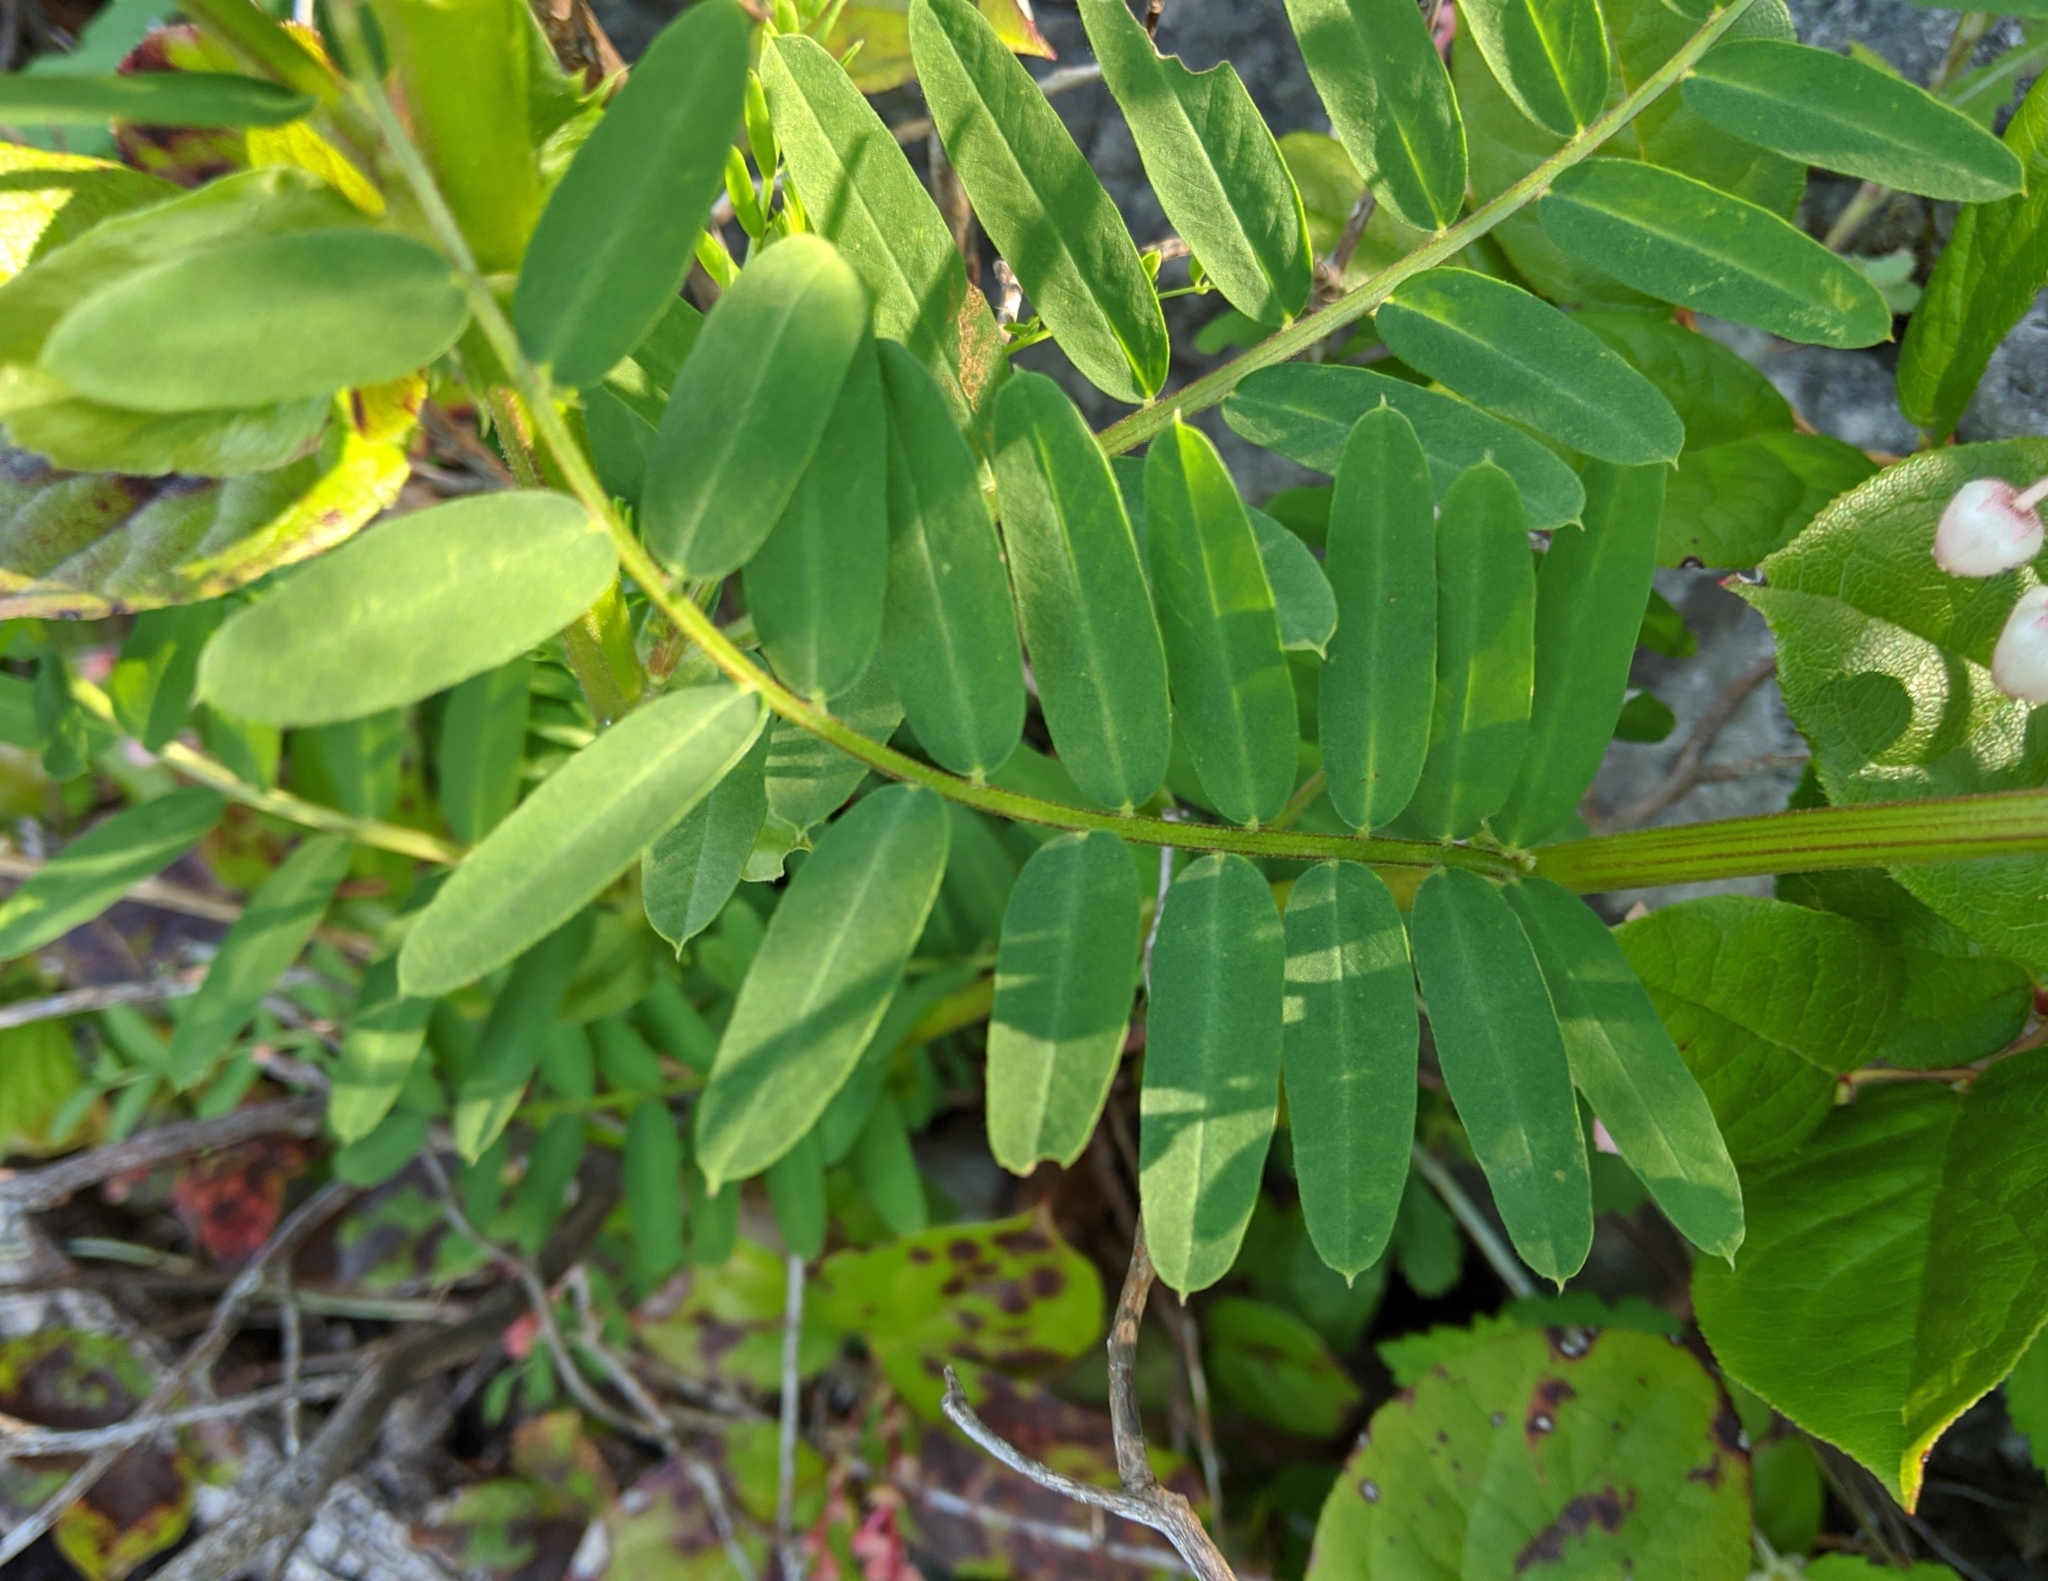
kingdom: Plantae
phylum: Tracheophyta
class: Magnoliopsida
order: Fabales
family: Fabaceae
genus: Vicia
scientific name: Vicia
